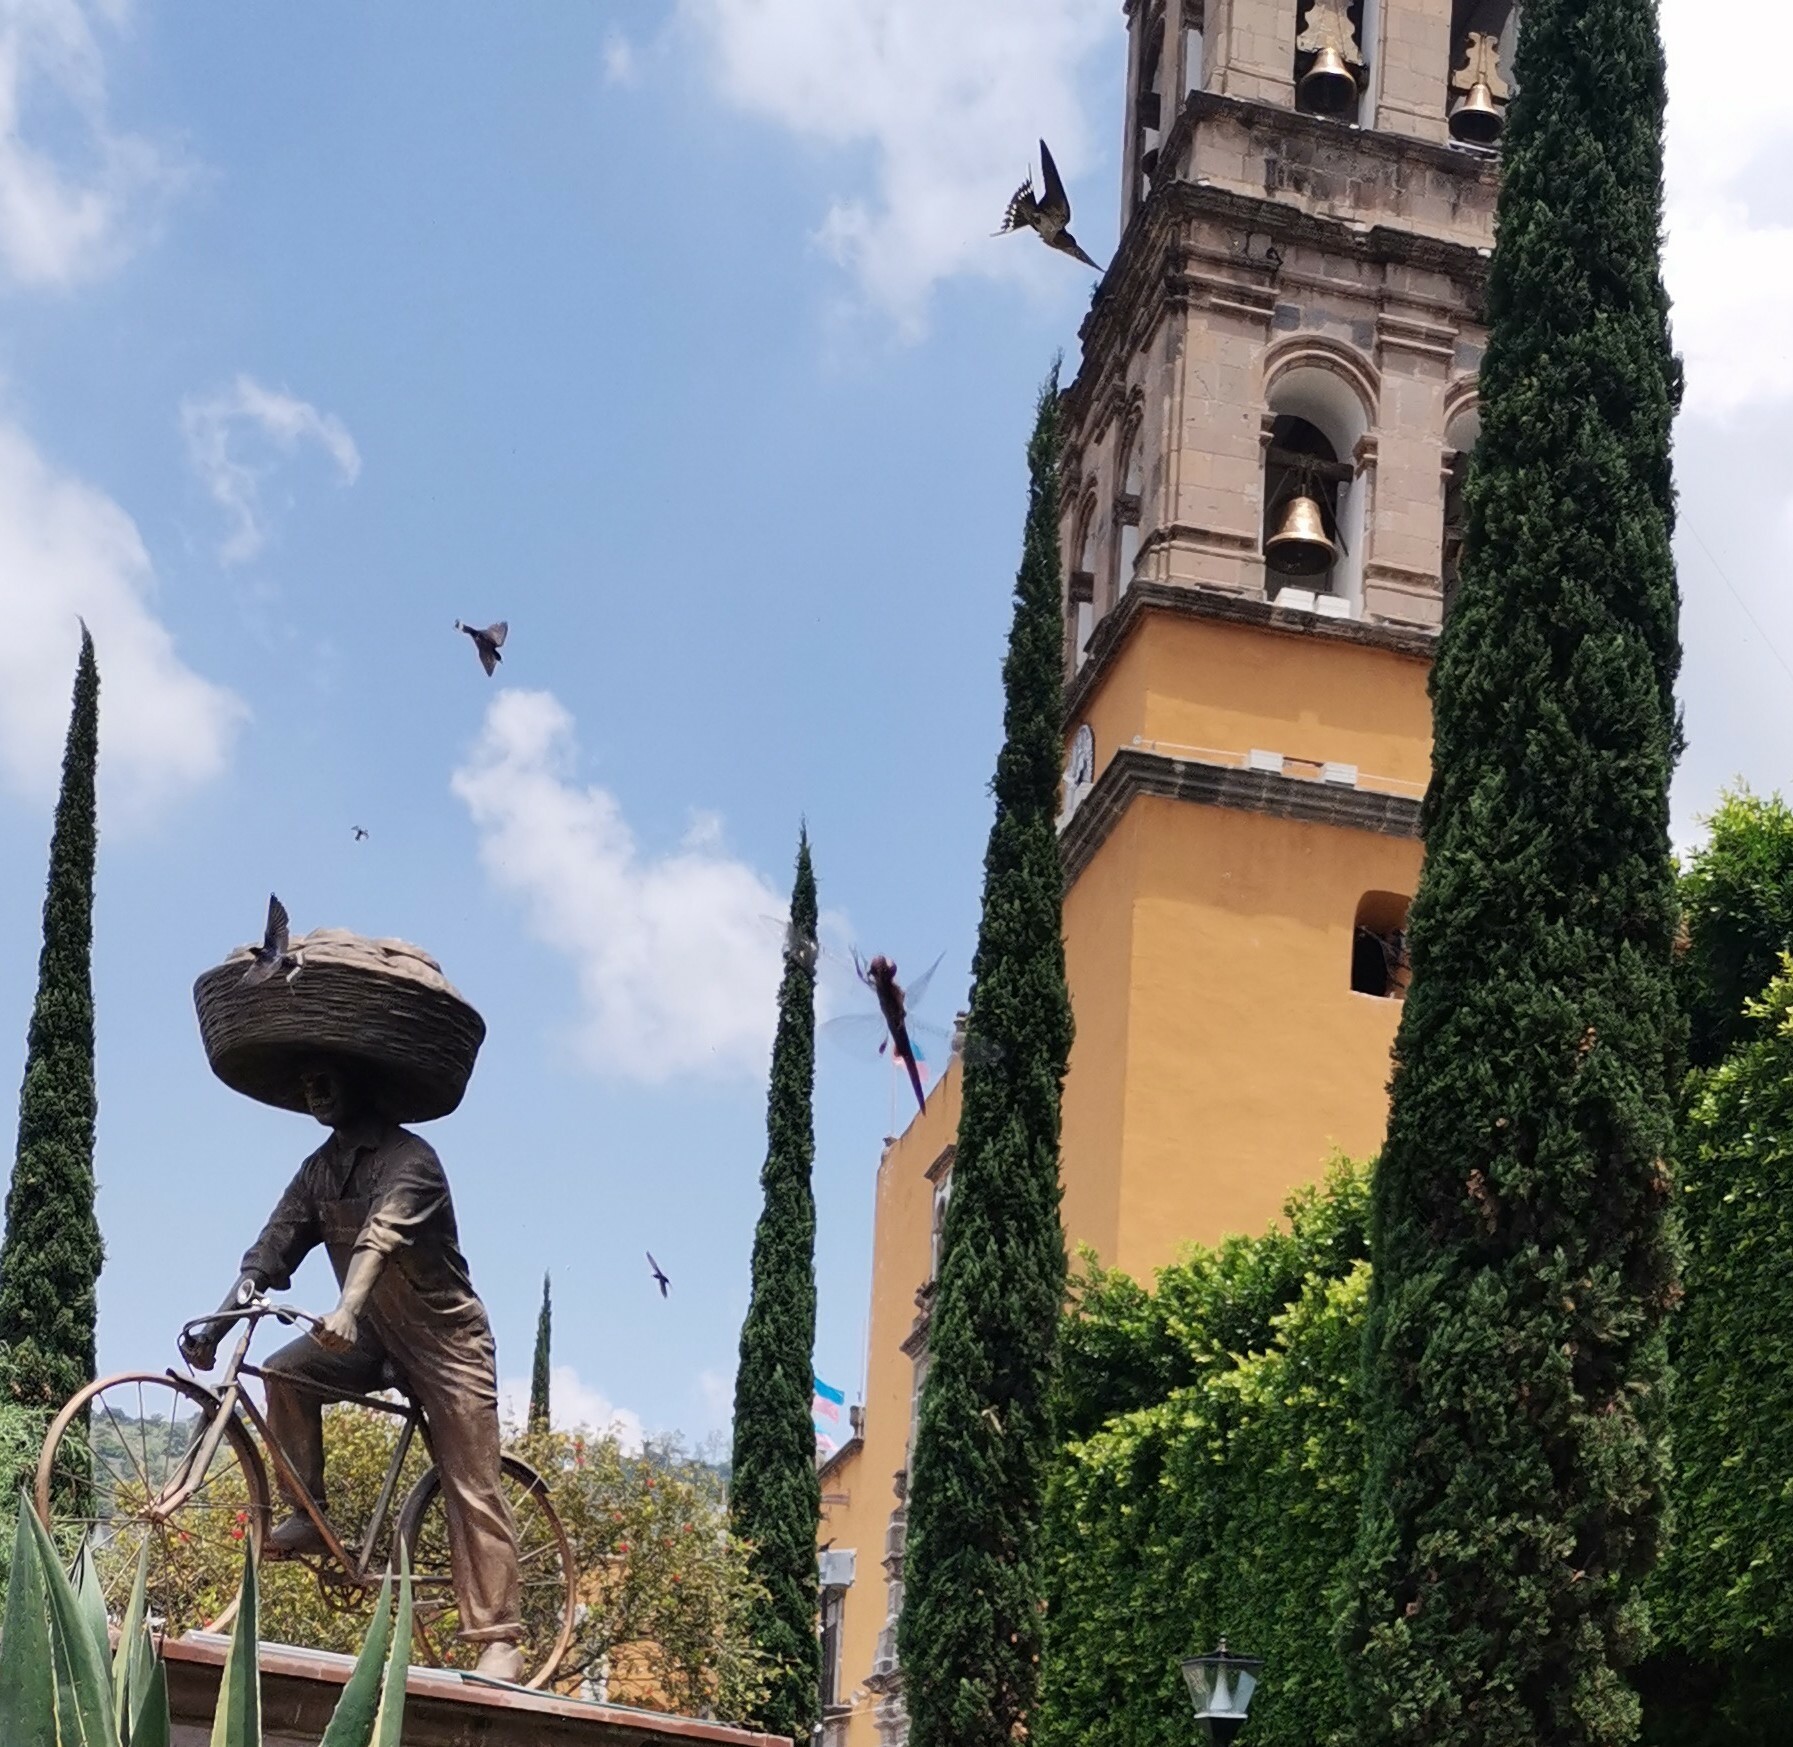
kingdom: Animalia
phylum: Chordata
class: Aves
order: Passeriformes
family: Hirundinidae
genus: Hirundo
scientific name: Hirundo rustica
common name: Barn swallow
